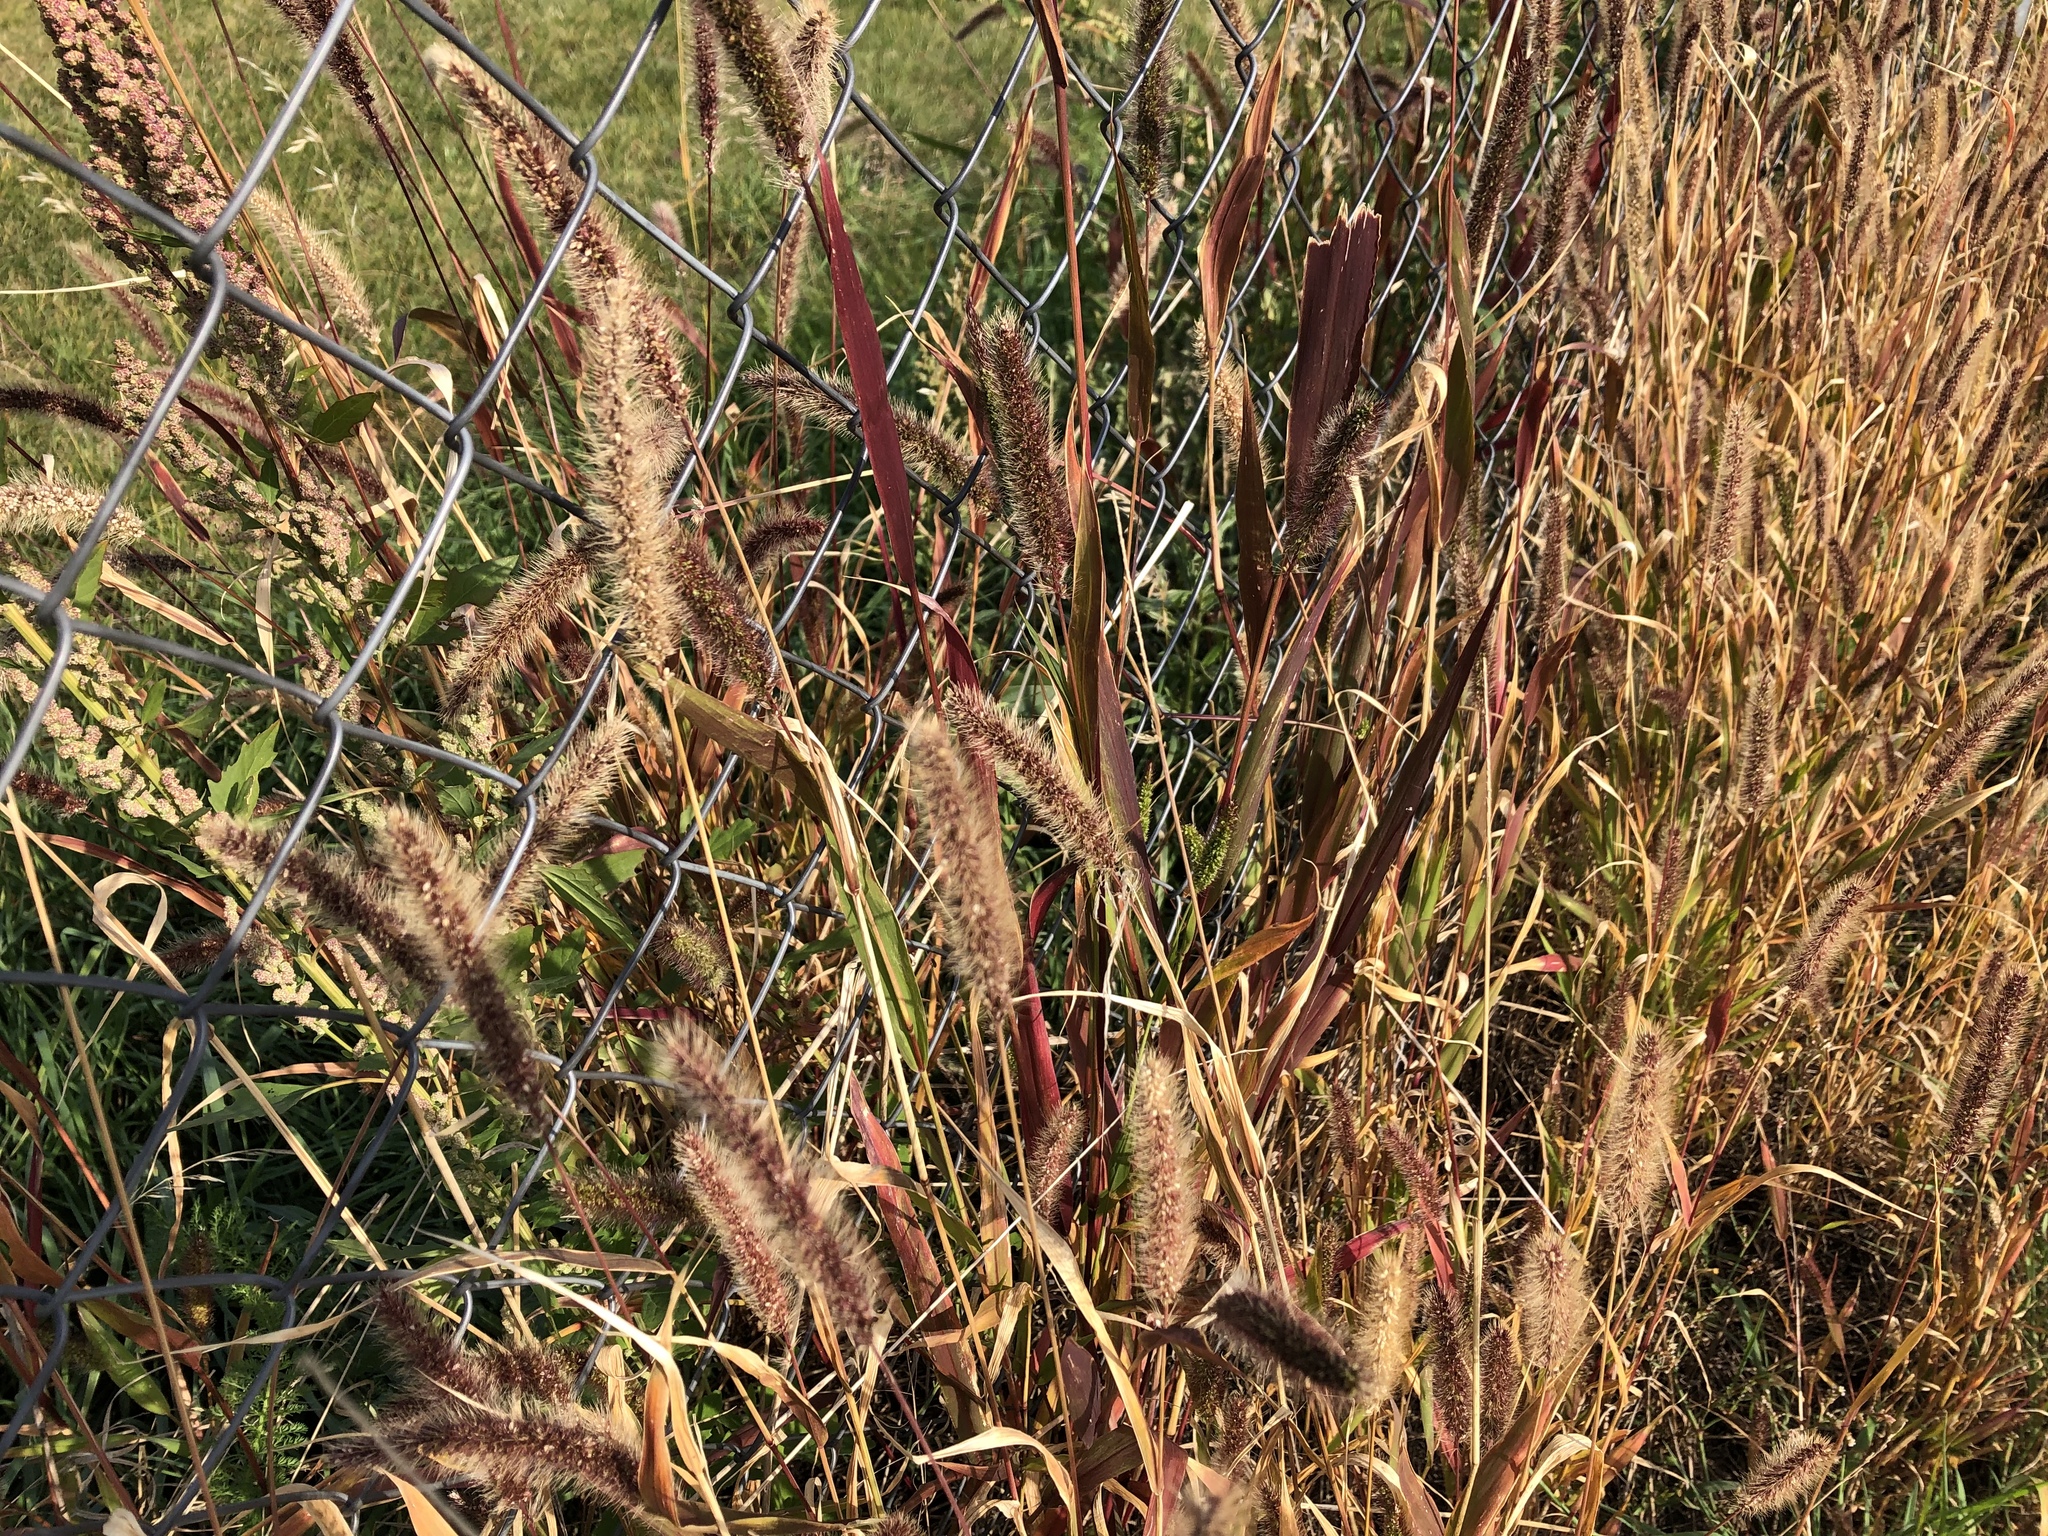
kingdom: Plantae
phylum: Tracheophyta
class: Liliopsida
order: Poales
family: Poaceae
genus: Setaria
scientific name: Setaria viridis
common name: Green bristlegrass
